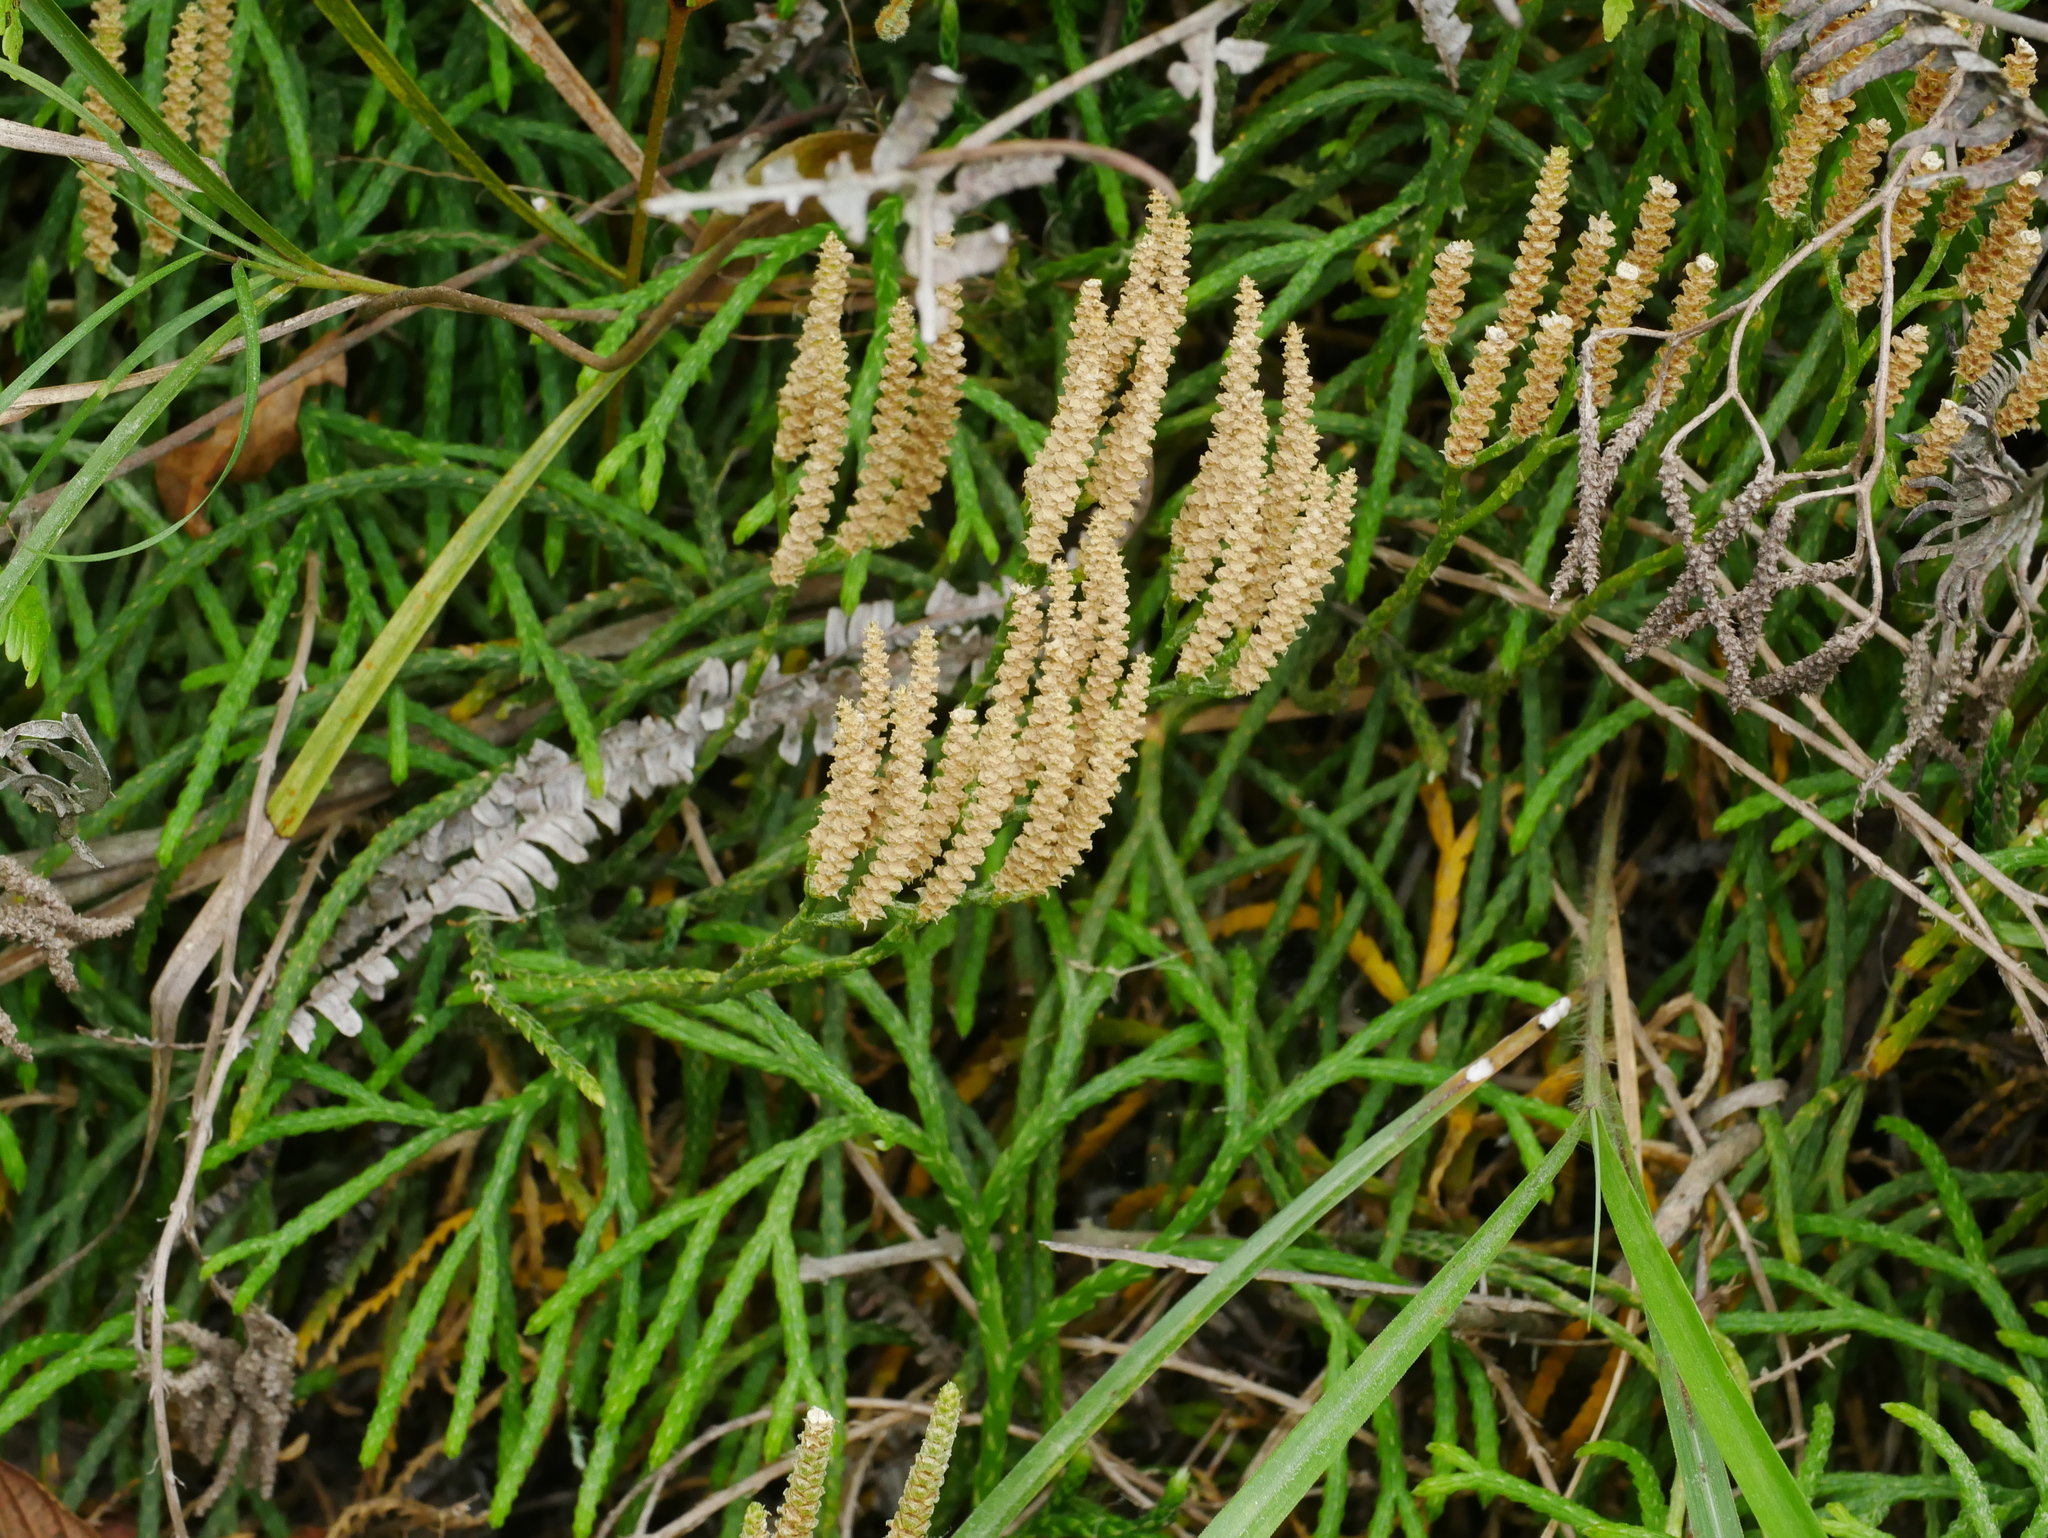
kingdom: Plantae
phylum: Tracheophyta
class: Lycopodiopsida
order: Lycopodiales
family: Lycopodiaceae
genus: Diphasiastrum
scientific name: Diphasiastrum complanatum
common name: Northern running-pine
